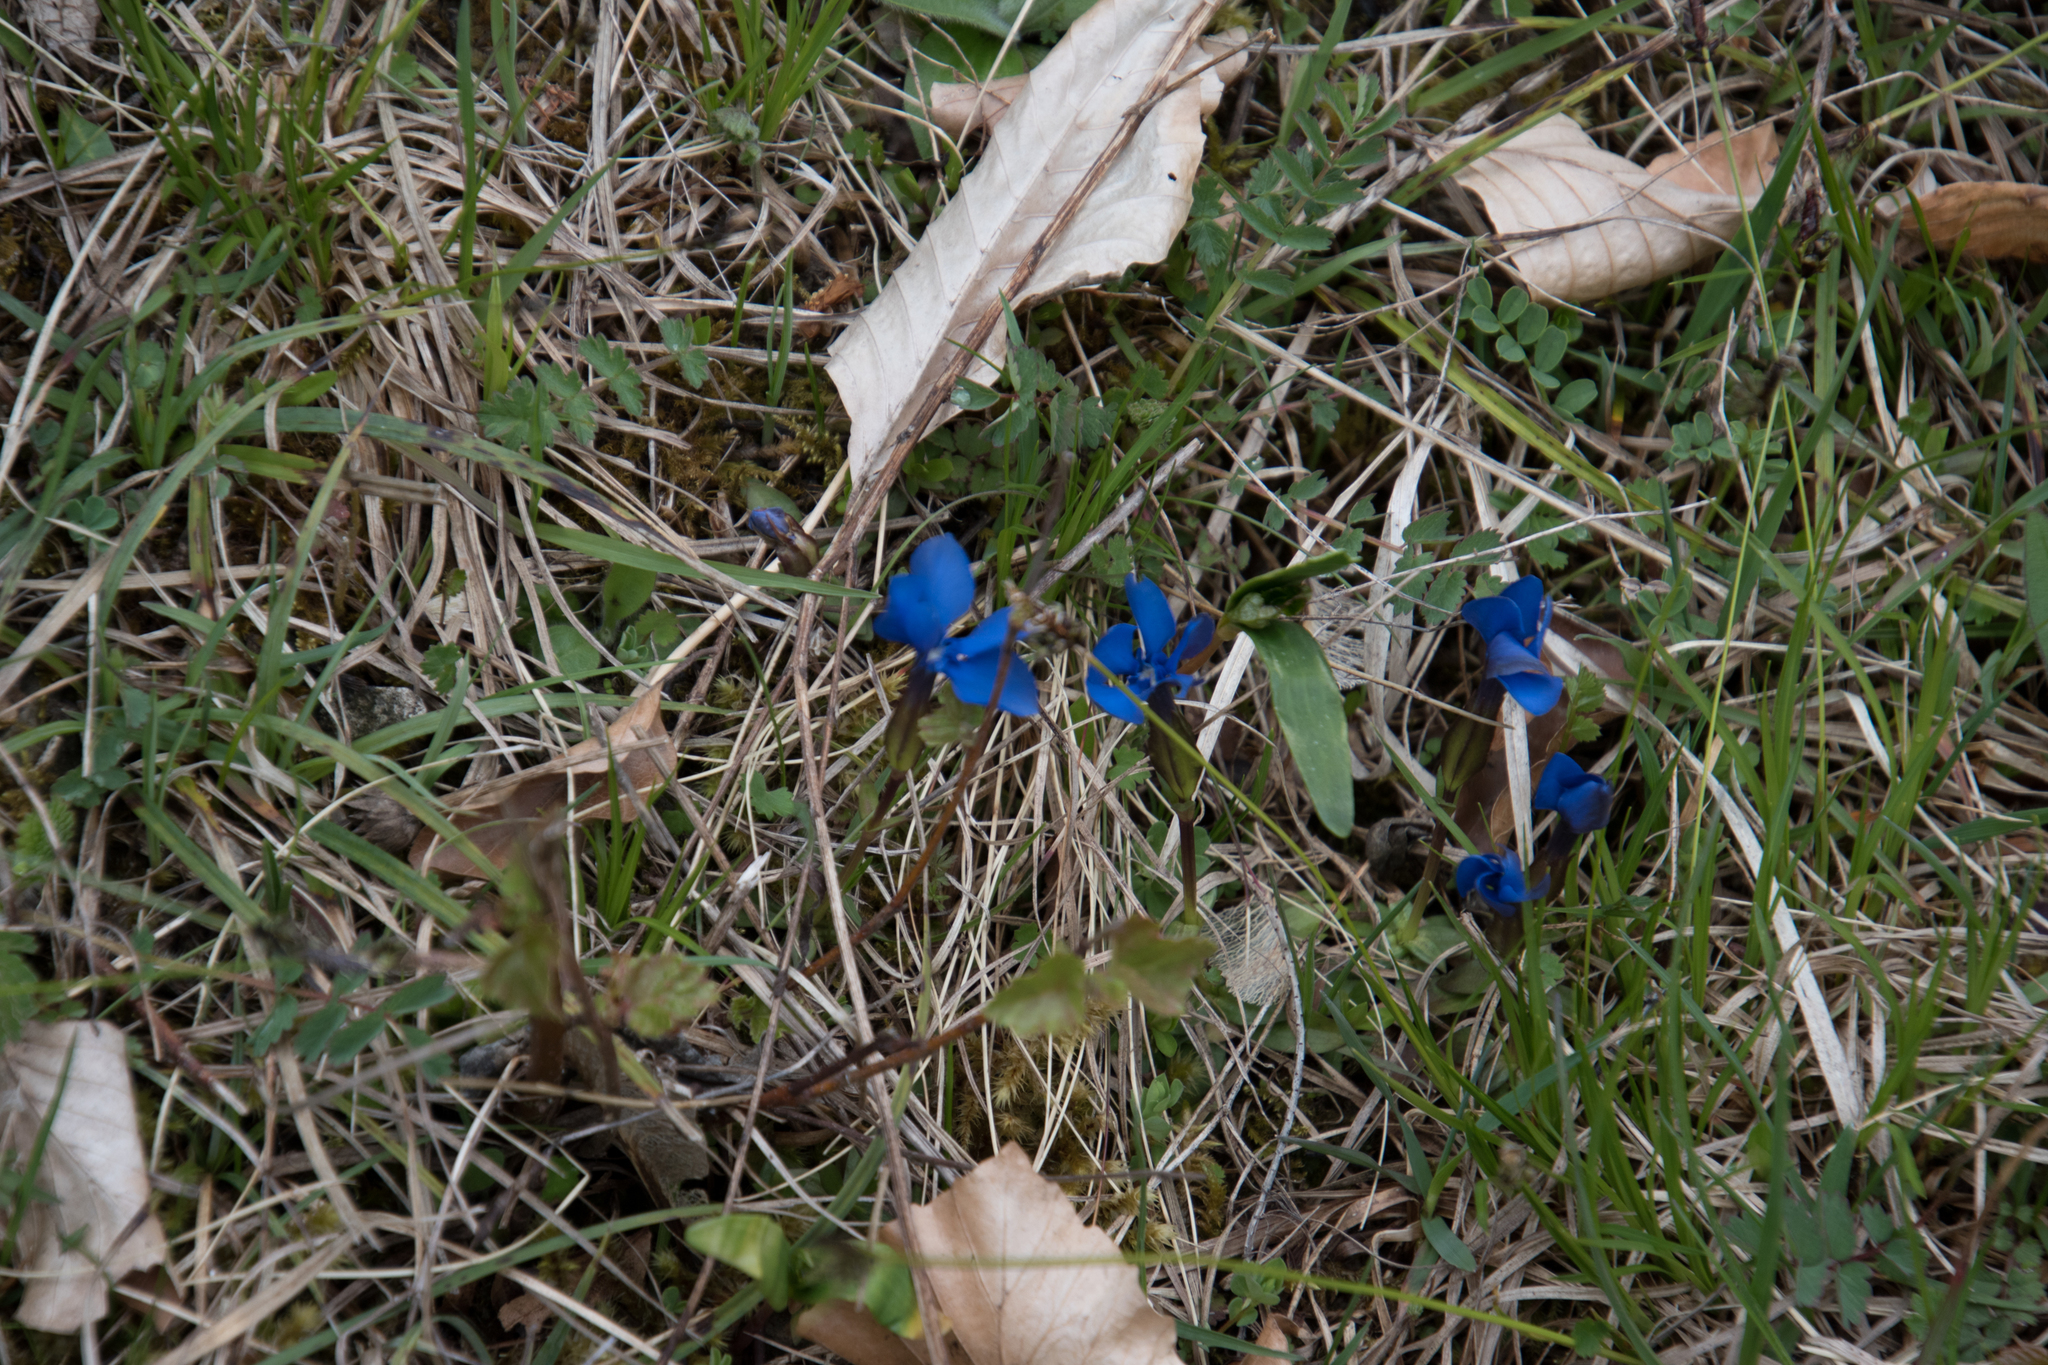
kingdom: Plantae
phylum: Tracheophyta
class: Magnoliopsida
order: Gentianales
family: Gentianaceae
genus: Gentiana
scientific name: Gentiana verna
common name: Spring gentian
